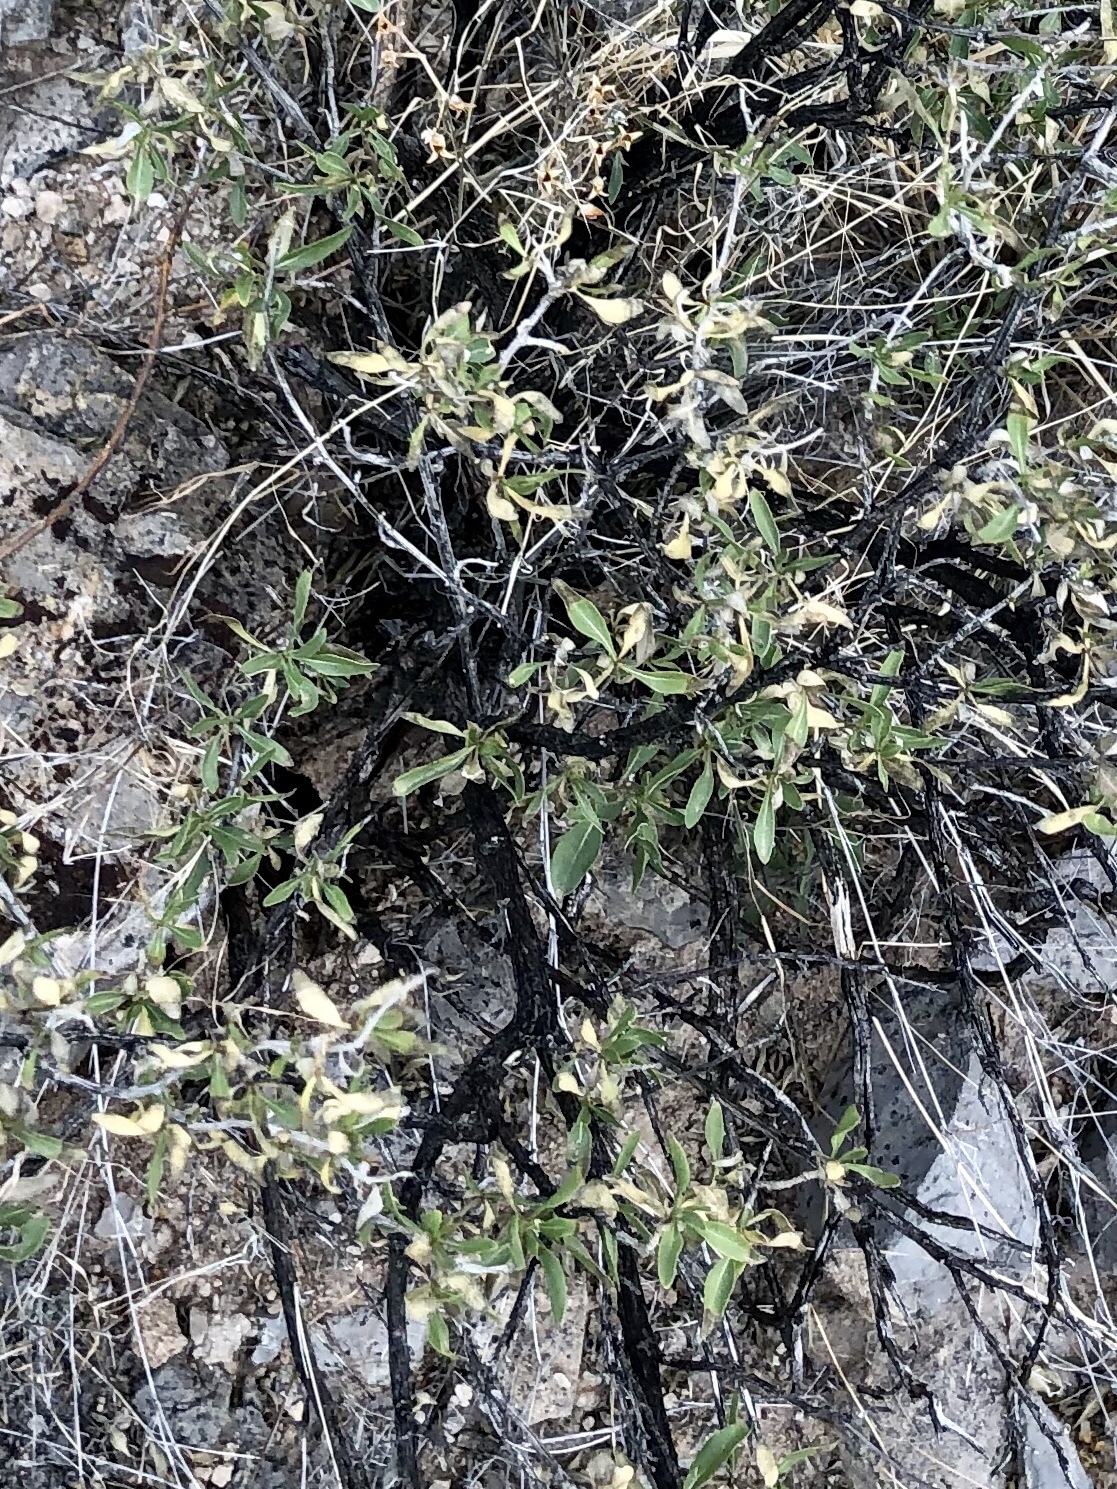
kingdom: Plantae
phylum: Tracheophyta
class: Magnoliopsida
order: Asterales
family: Asteraceae
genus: Flourensia
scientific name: Flourensia cernua
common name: Varnishbush
